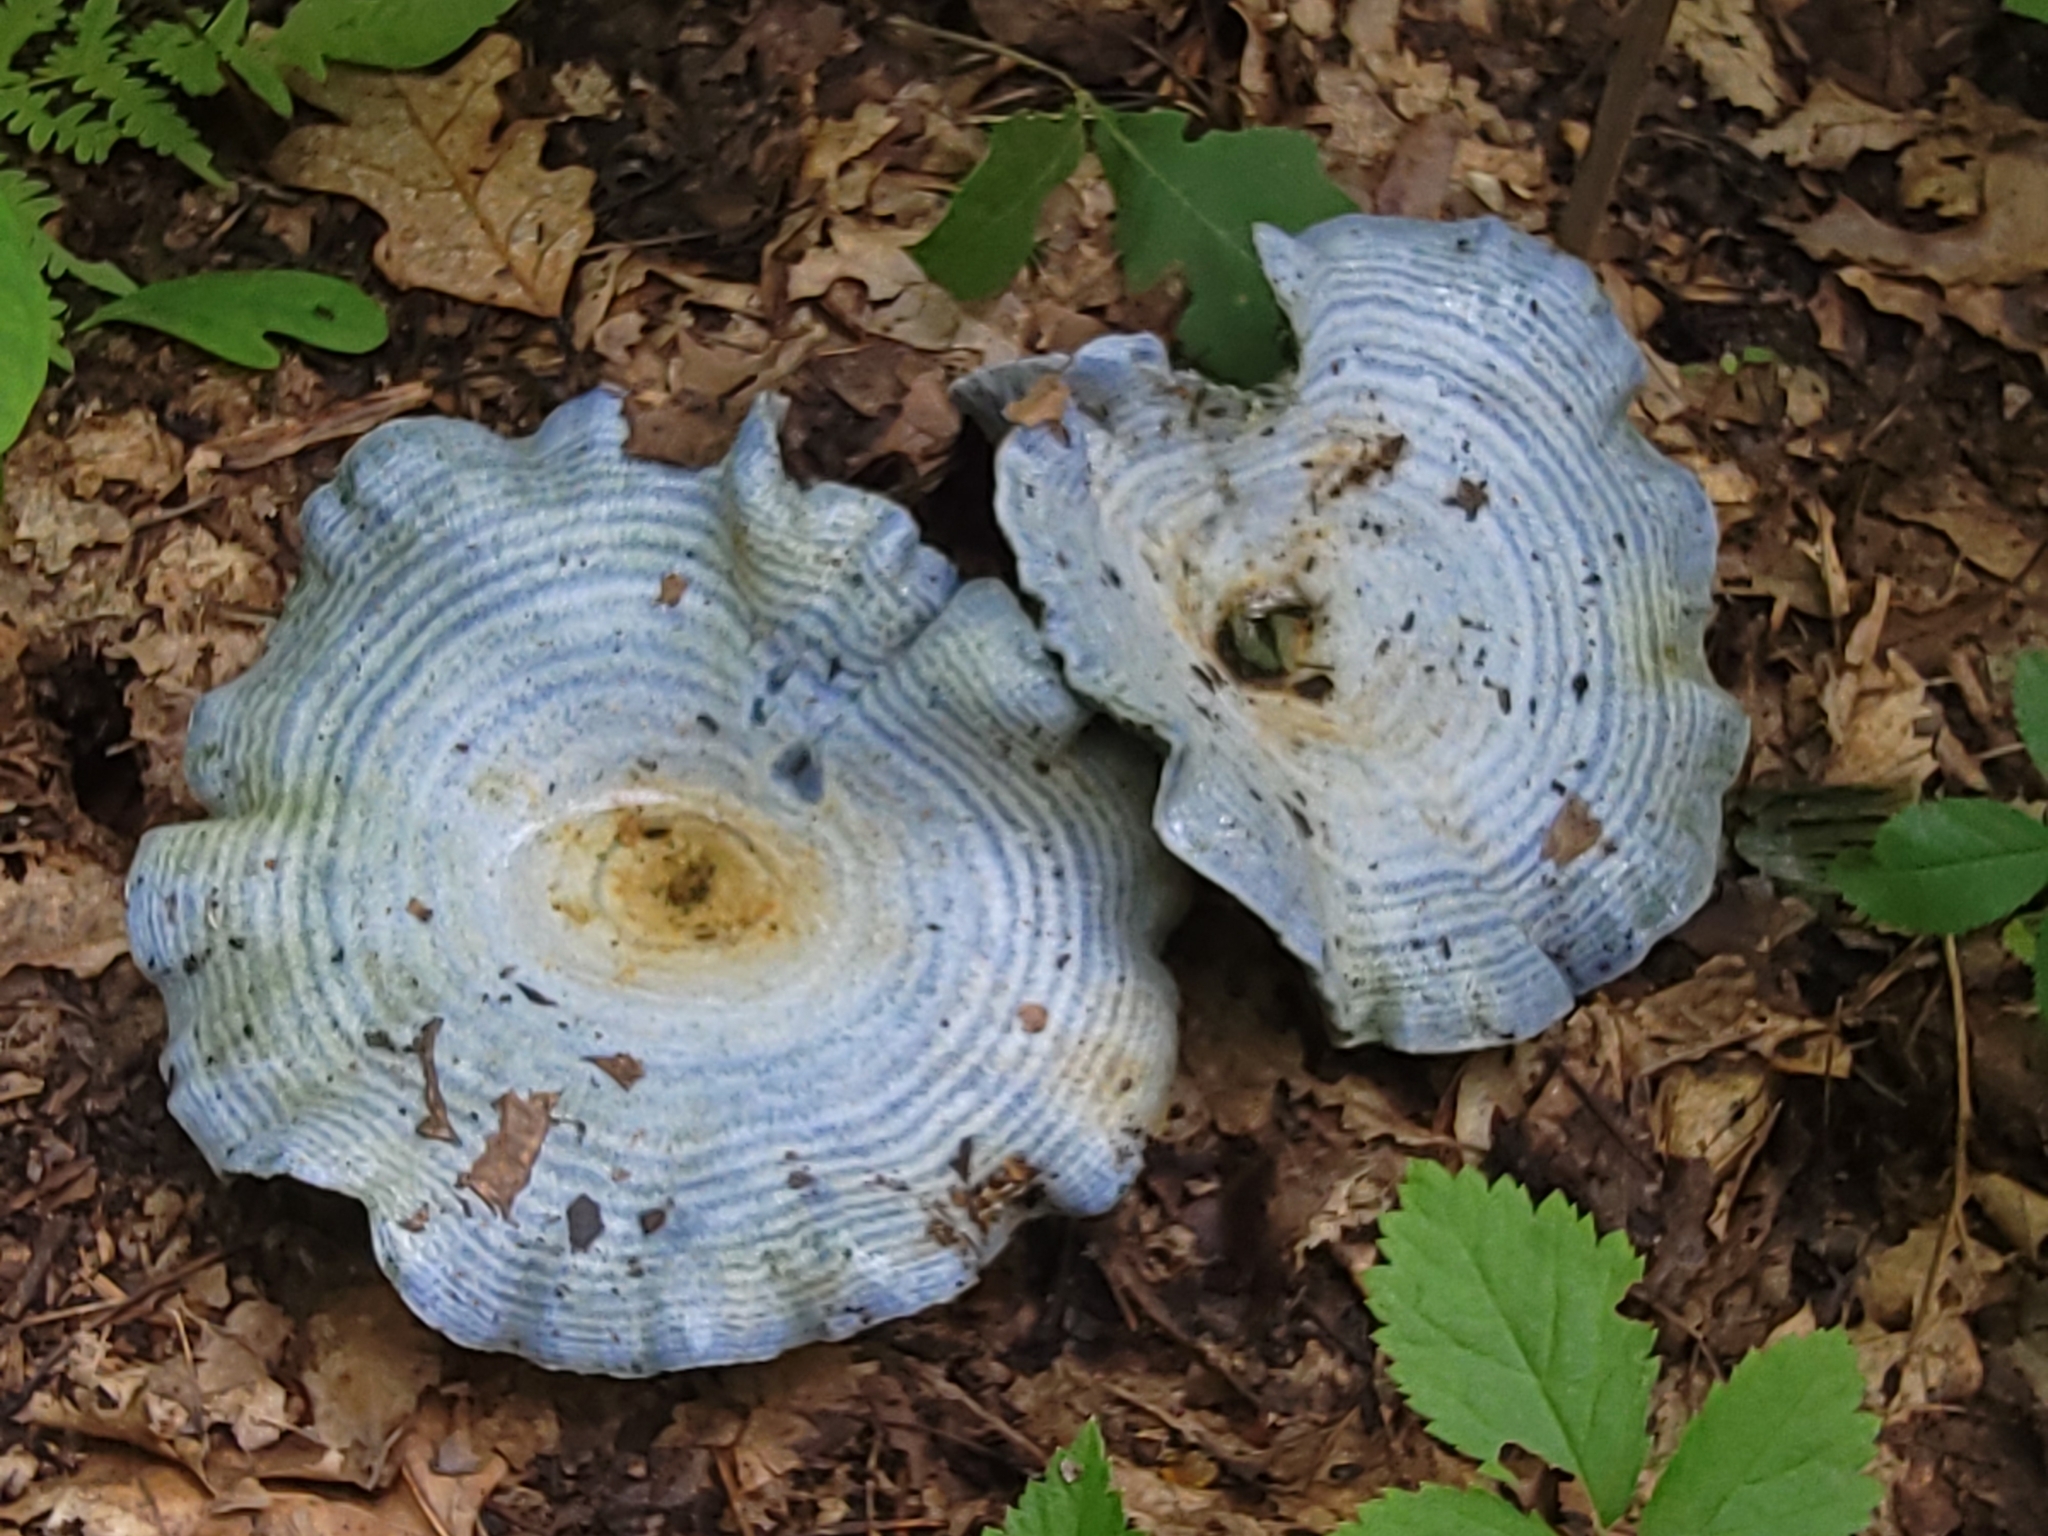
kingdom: Fungi
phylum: Basidiomycota
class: Agaricomycetes
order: Russulales
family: Russulaceae
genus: Lactarius
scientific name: Lactarius indigo
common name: Indigo milk cap
